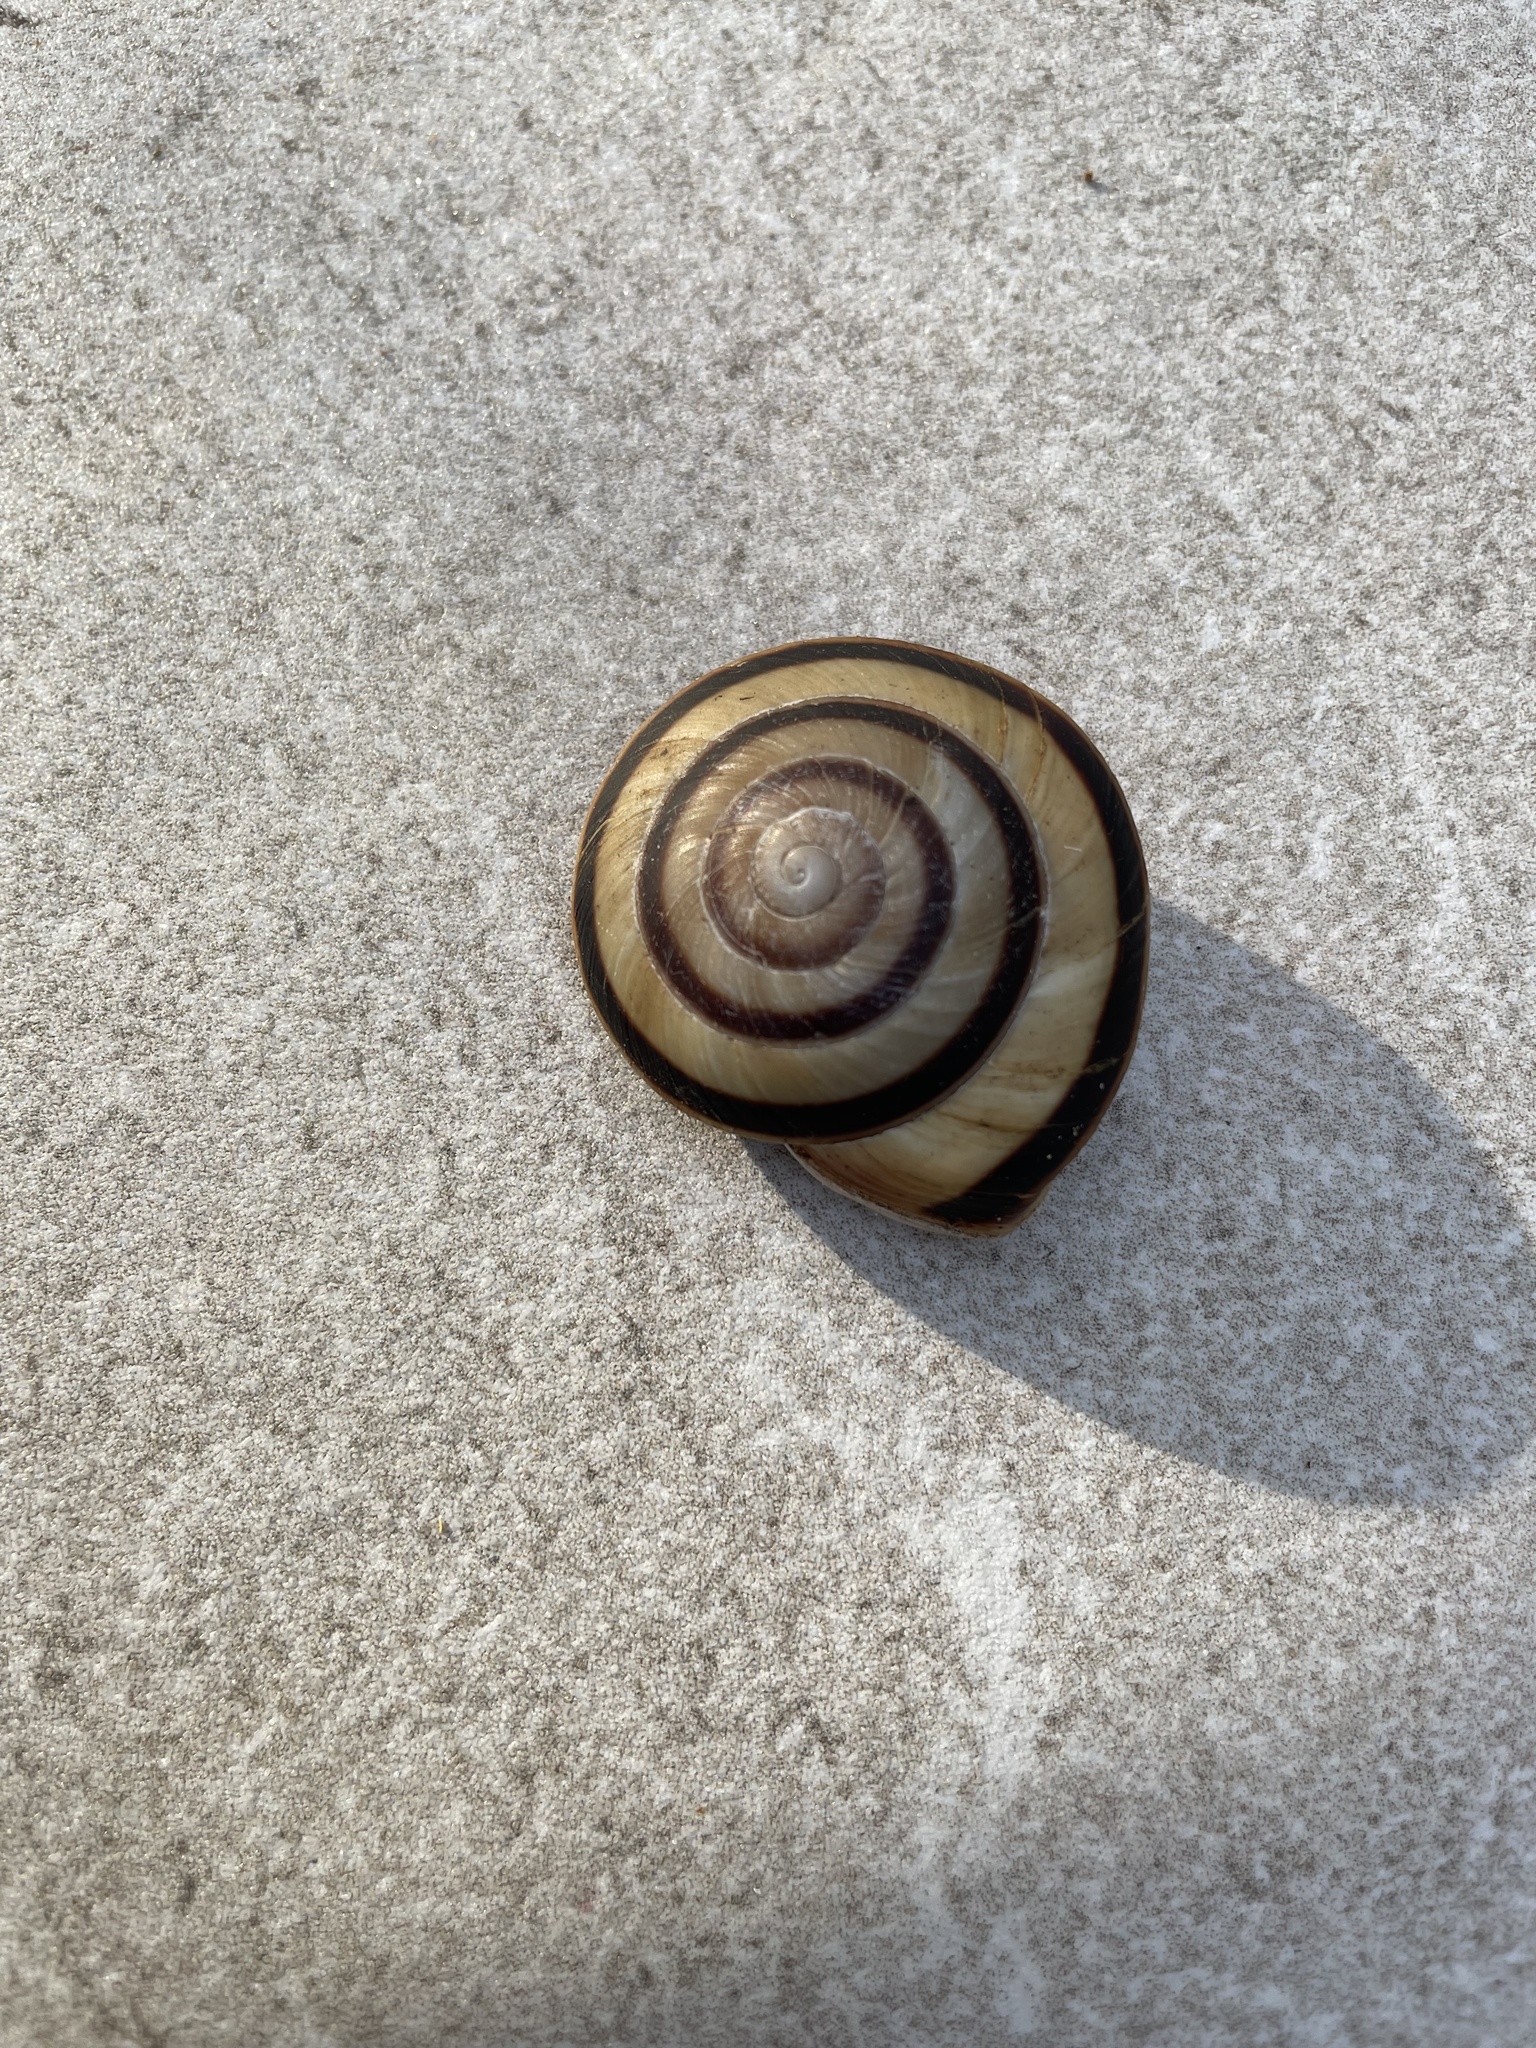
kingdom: Animalia
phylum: Mollusca
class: Gastropoda
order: Stylommatophora
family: Solaropsidae
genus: Caracolus
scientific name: Caracolus marginella
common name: Banded caracol
